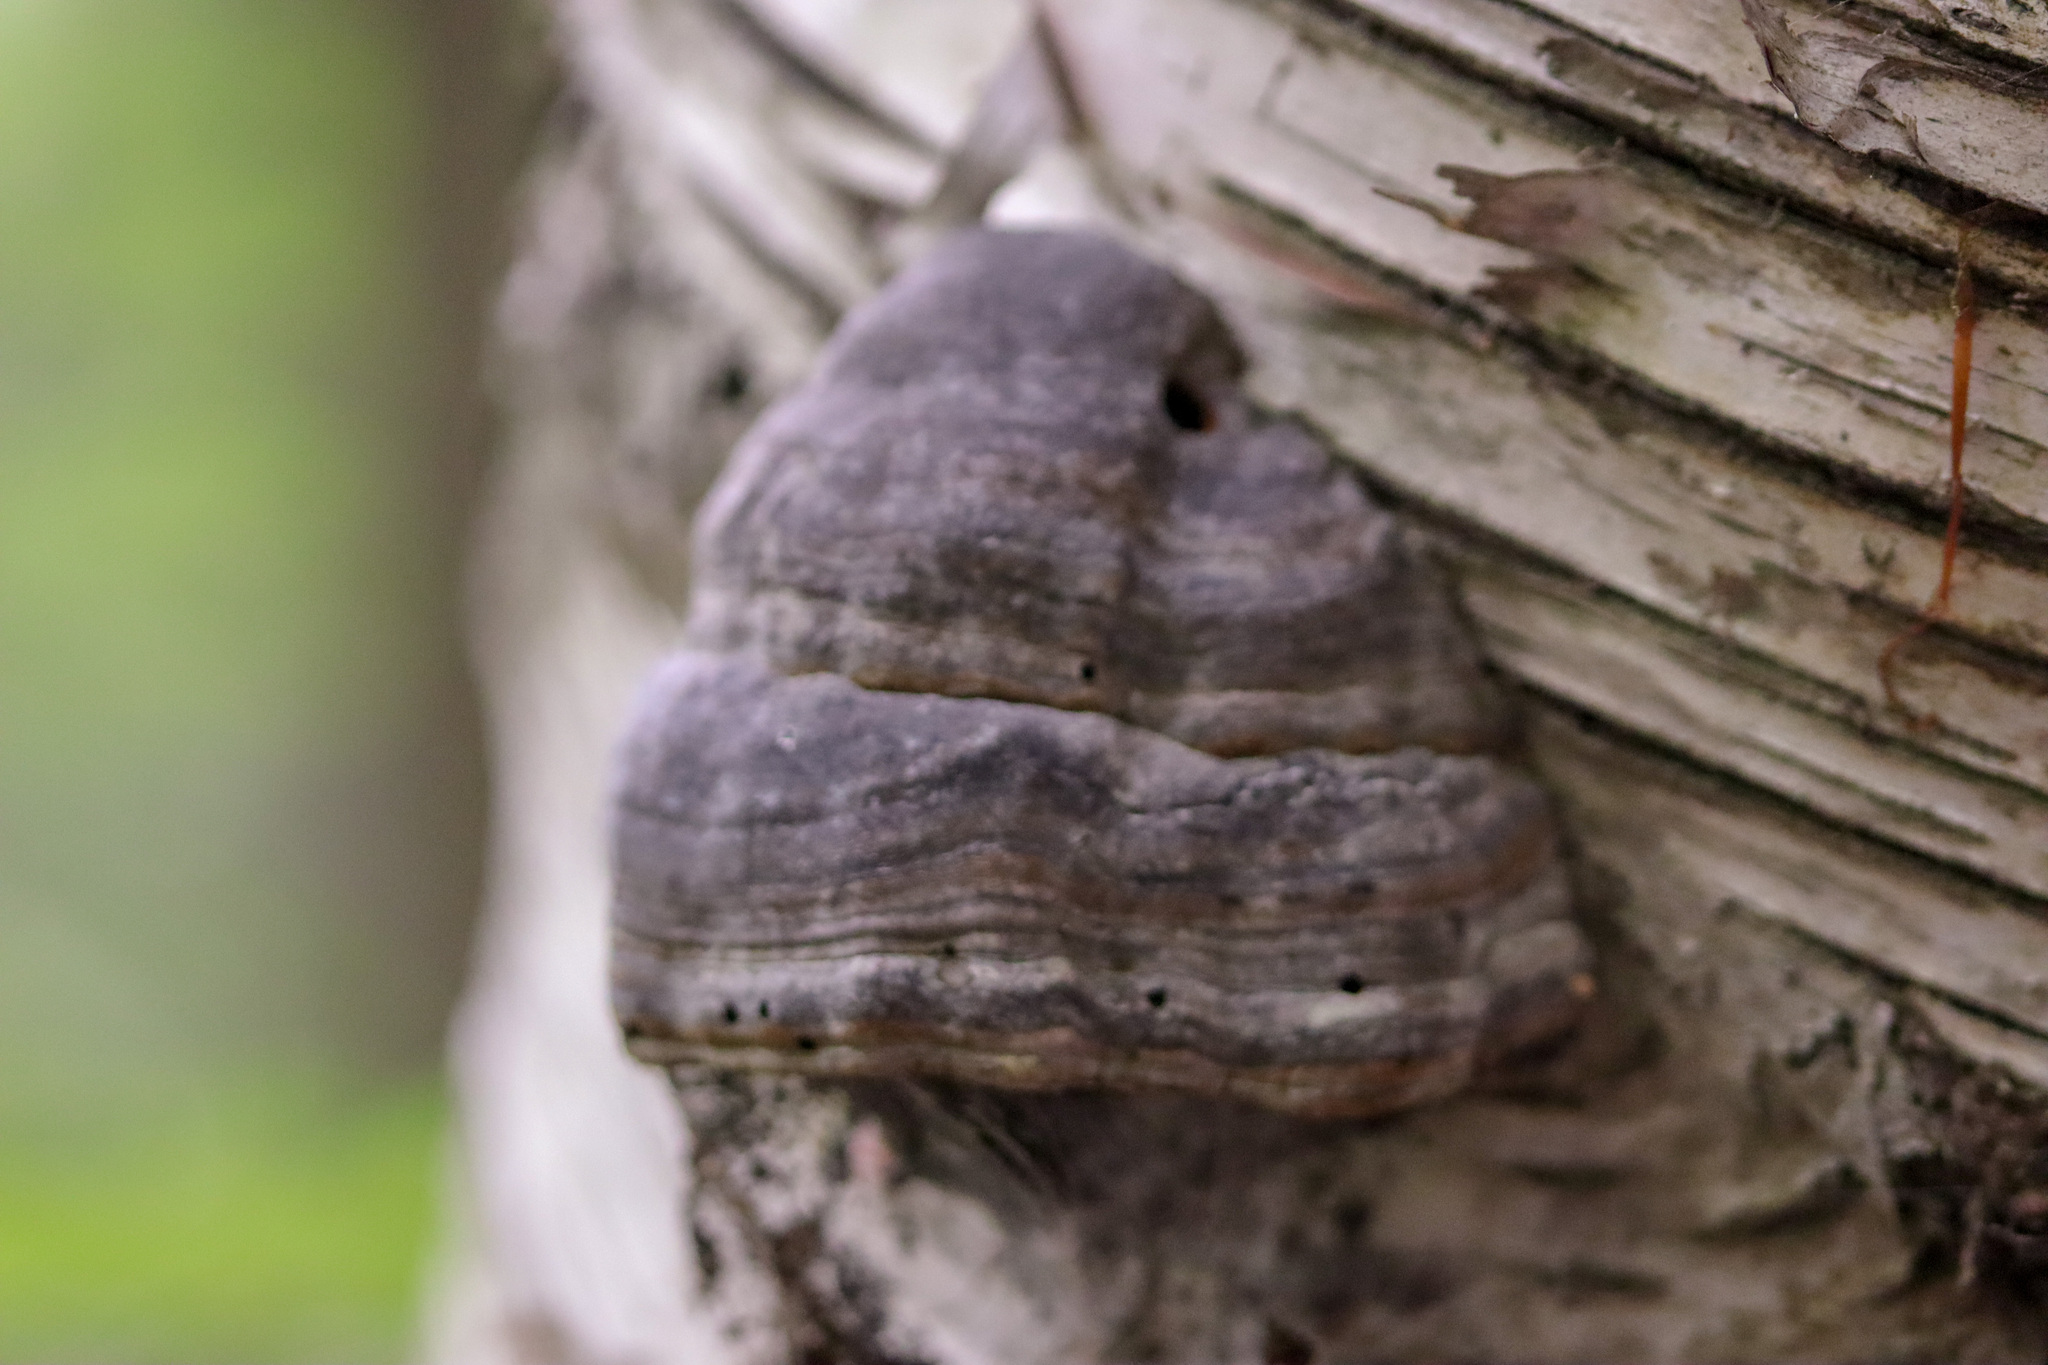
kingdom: Fungi
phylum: Basidiomycota
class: Agaricomycetes
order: Polyporales
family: Polyporaceae
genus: Fomes
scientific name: Fomes fomentarius
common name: Hoof fungus
